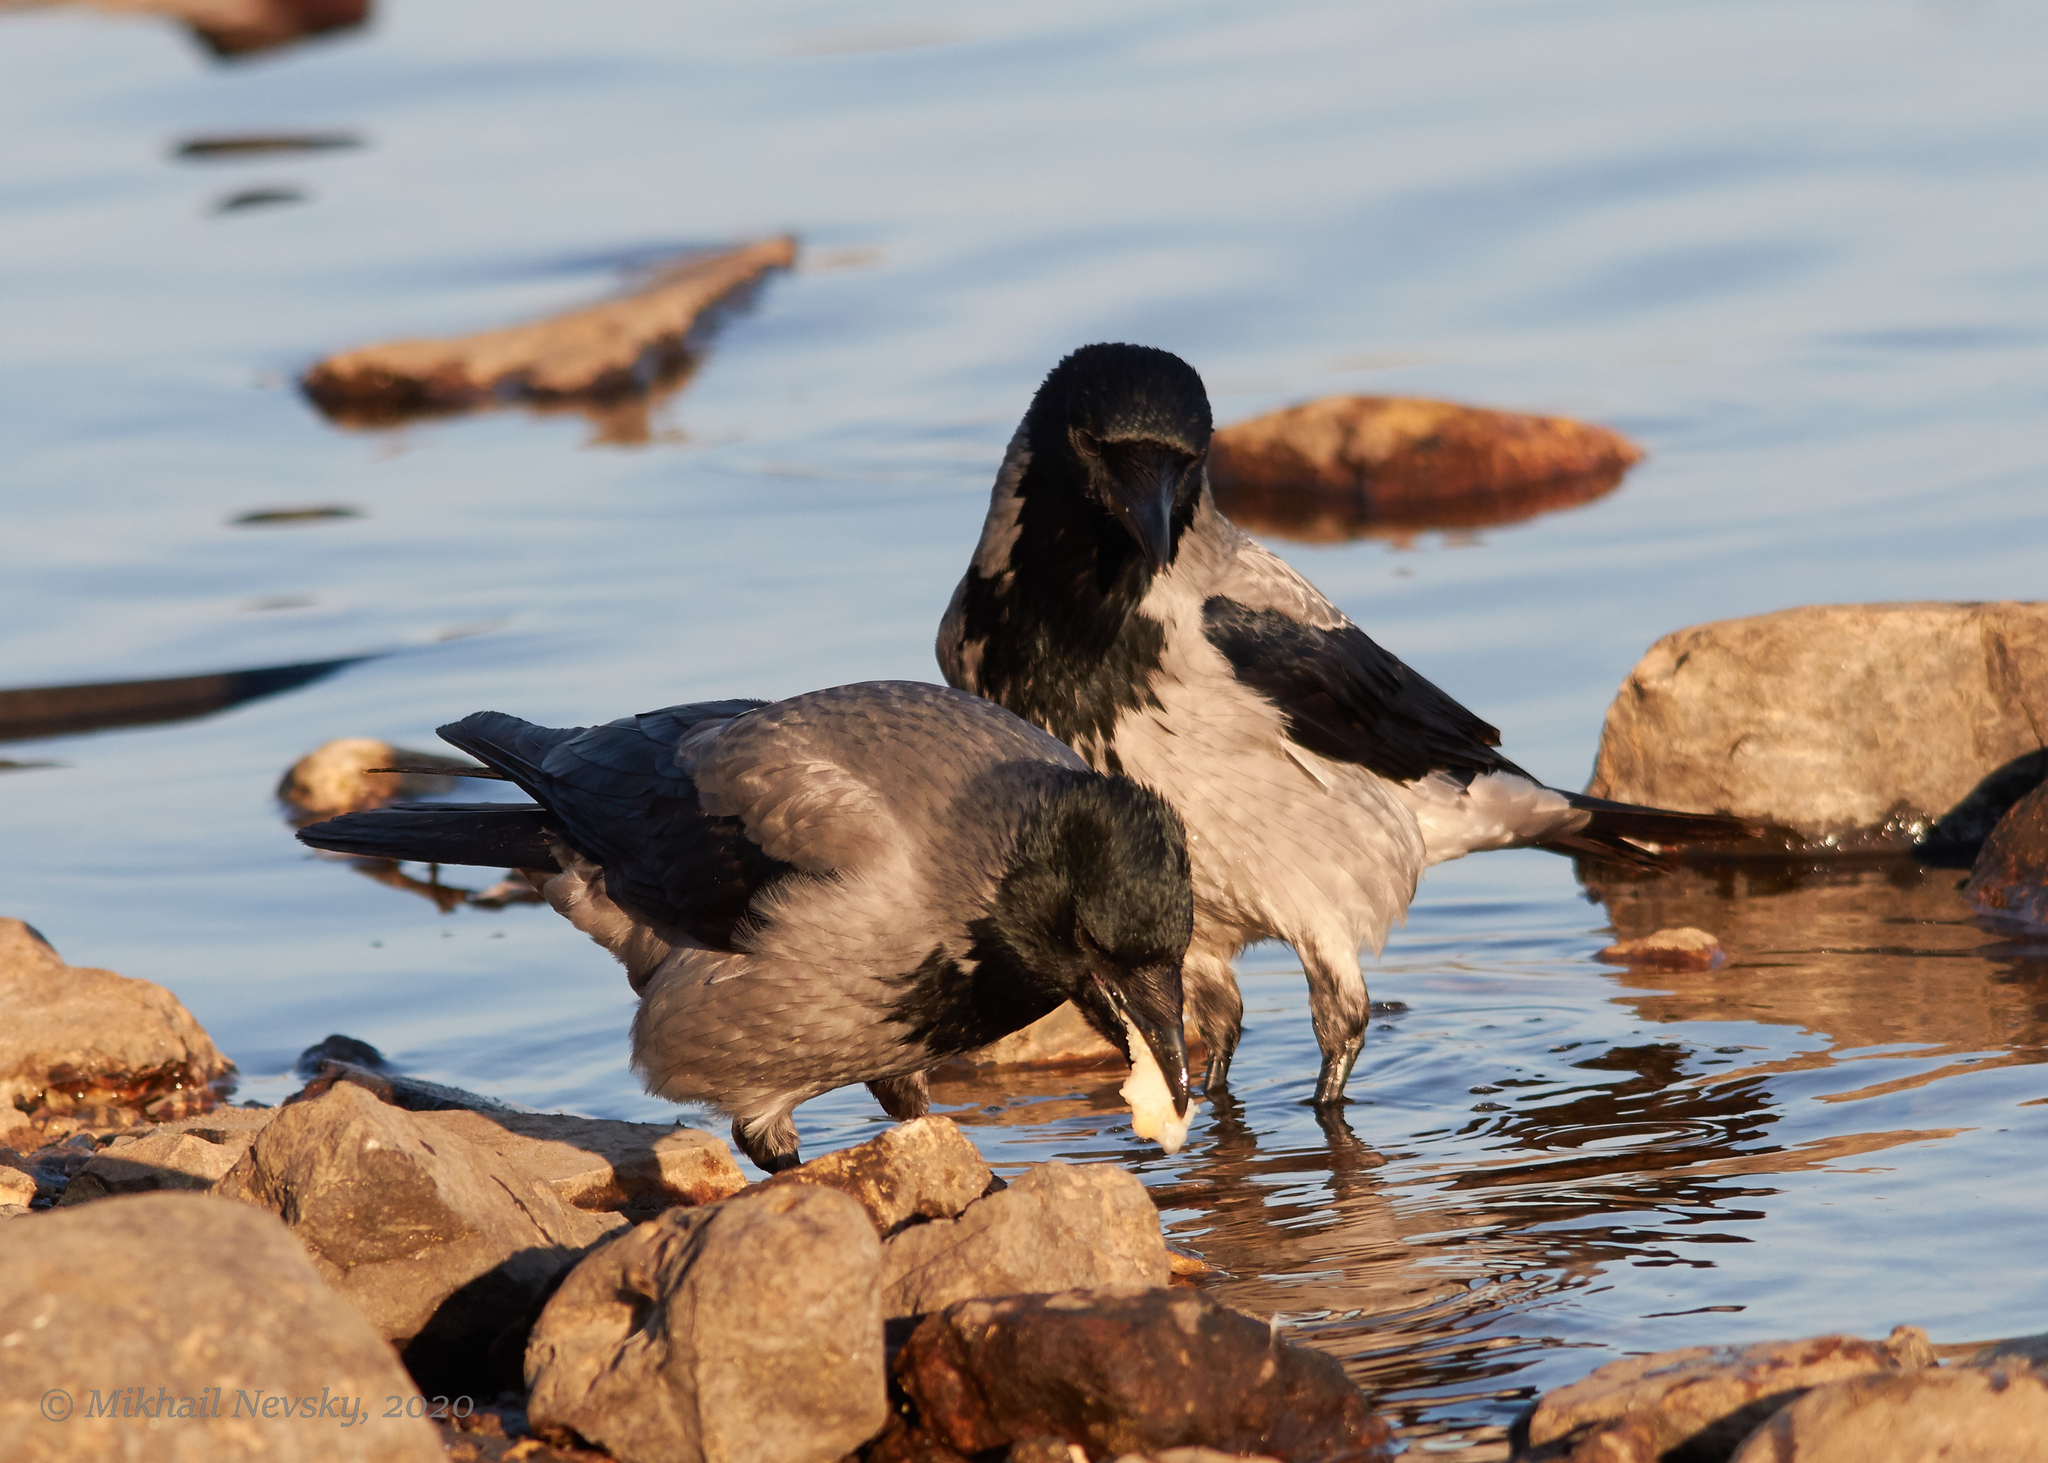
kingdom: Animalia
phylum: Chordata
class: Aves
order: Passeriformes
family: Corvidae
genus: Corvus
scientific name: Corvus cornix
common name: Hooded crow
